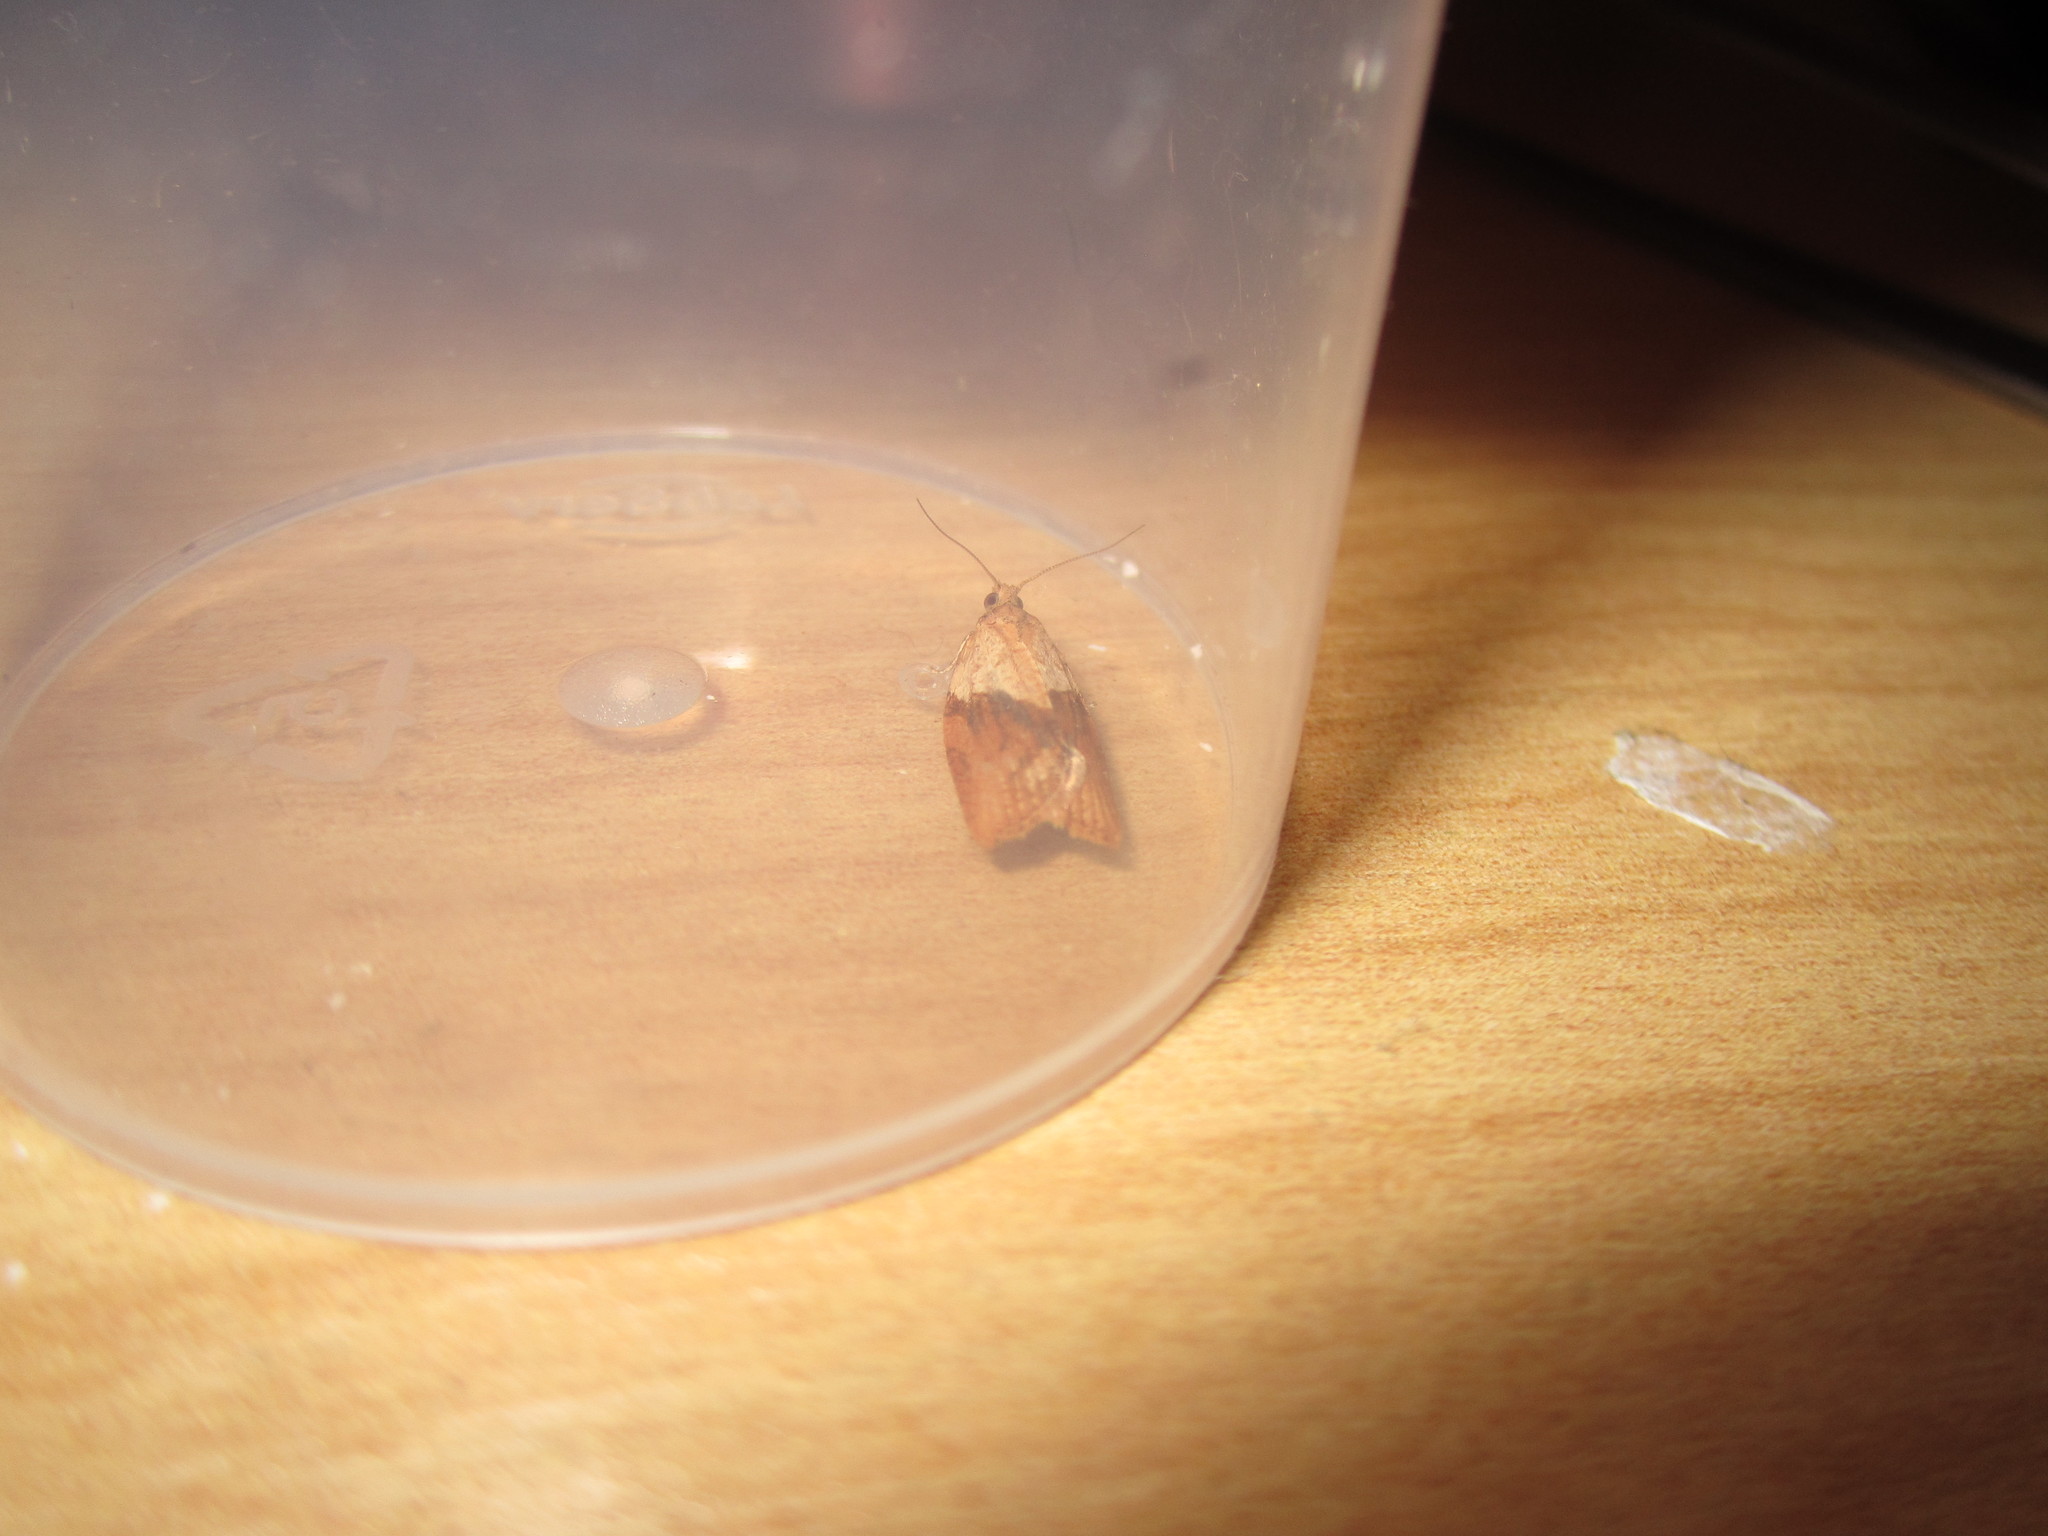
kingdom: Animalia
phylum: Arthropoda
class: Insecta
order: Lepidoptera
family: Tortricidae
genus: Epiphyas
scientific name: Epiphyas postvittana
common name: Light brown apple moth
